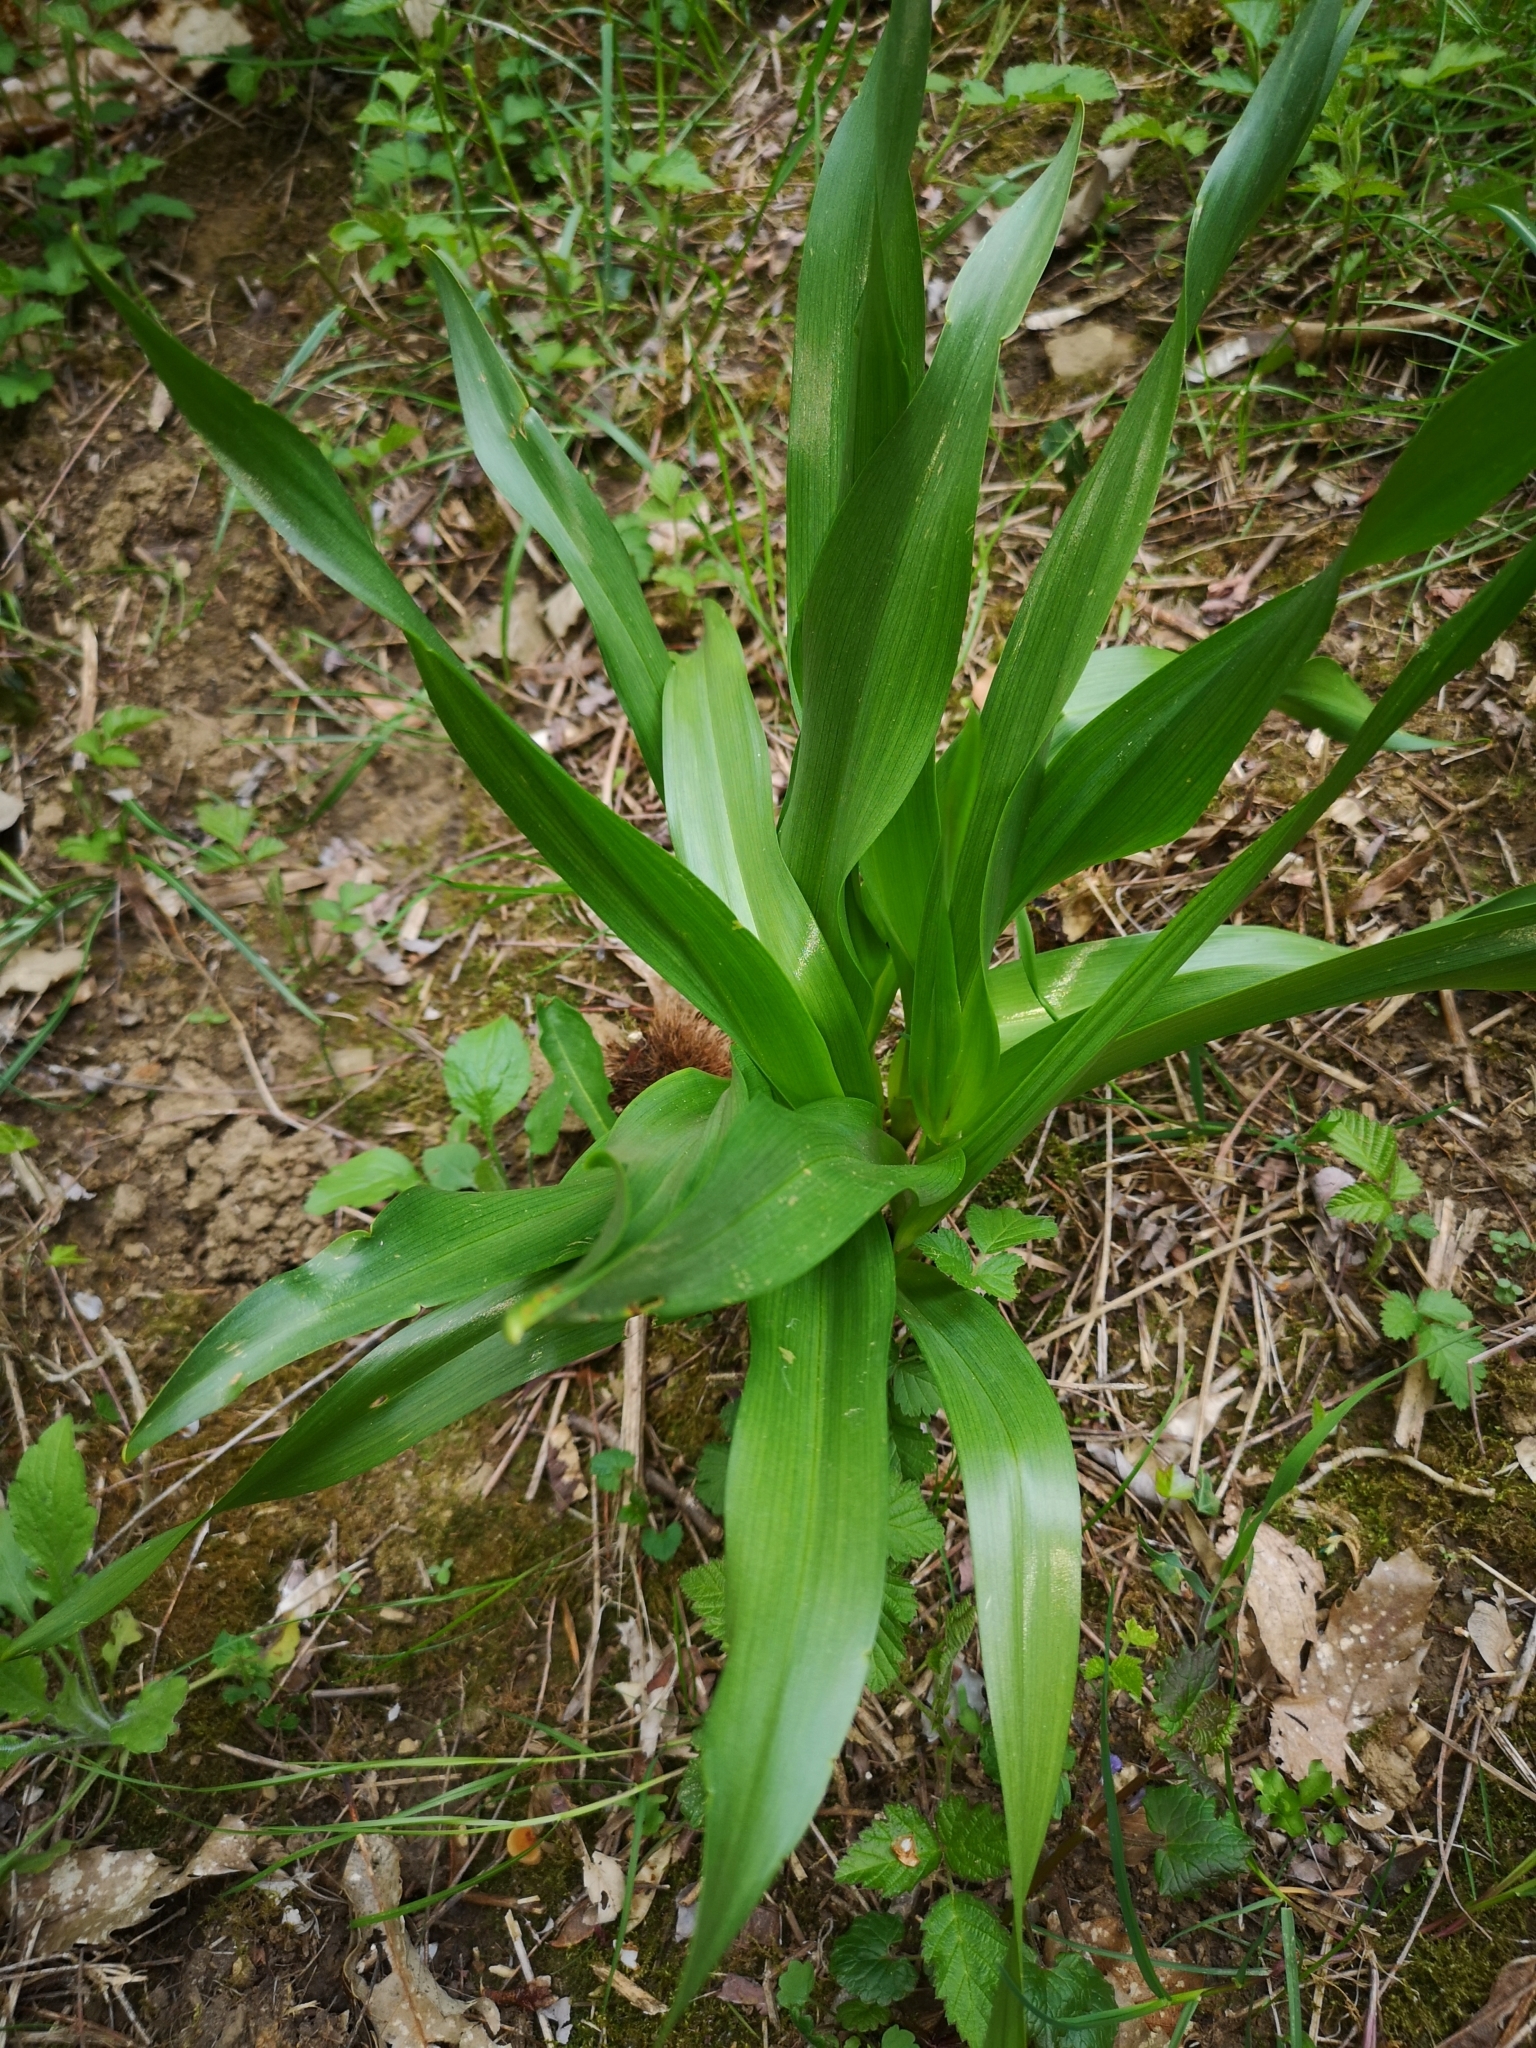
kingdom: Plantae
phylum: Tracheophyta
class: Liliopsida
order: Liliales
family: Colchicaceae
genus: Colchicum
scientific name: Colchicum autumnale
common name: Autumn crocus
